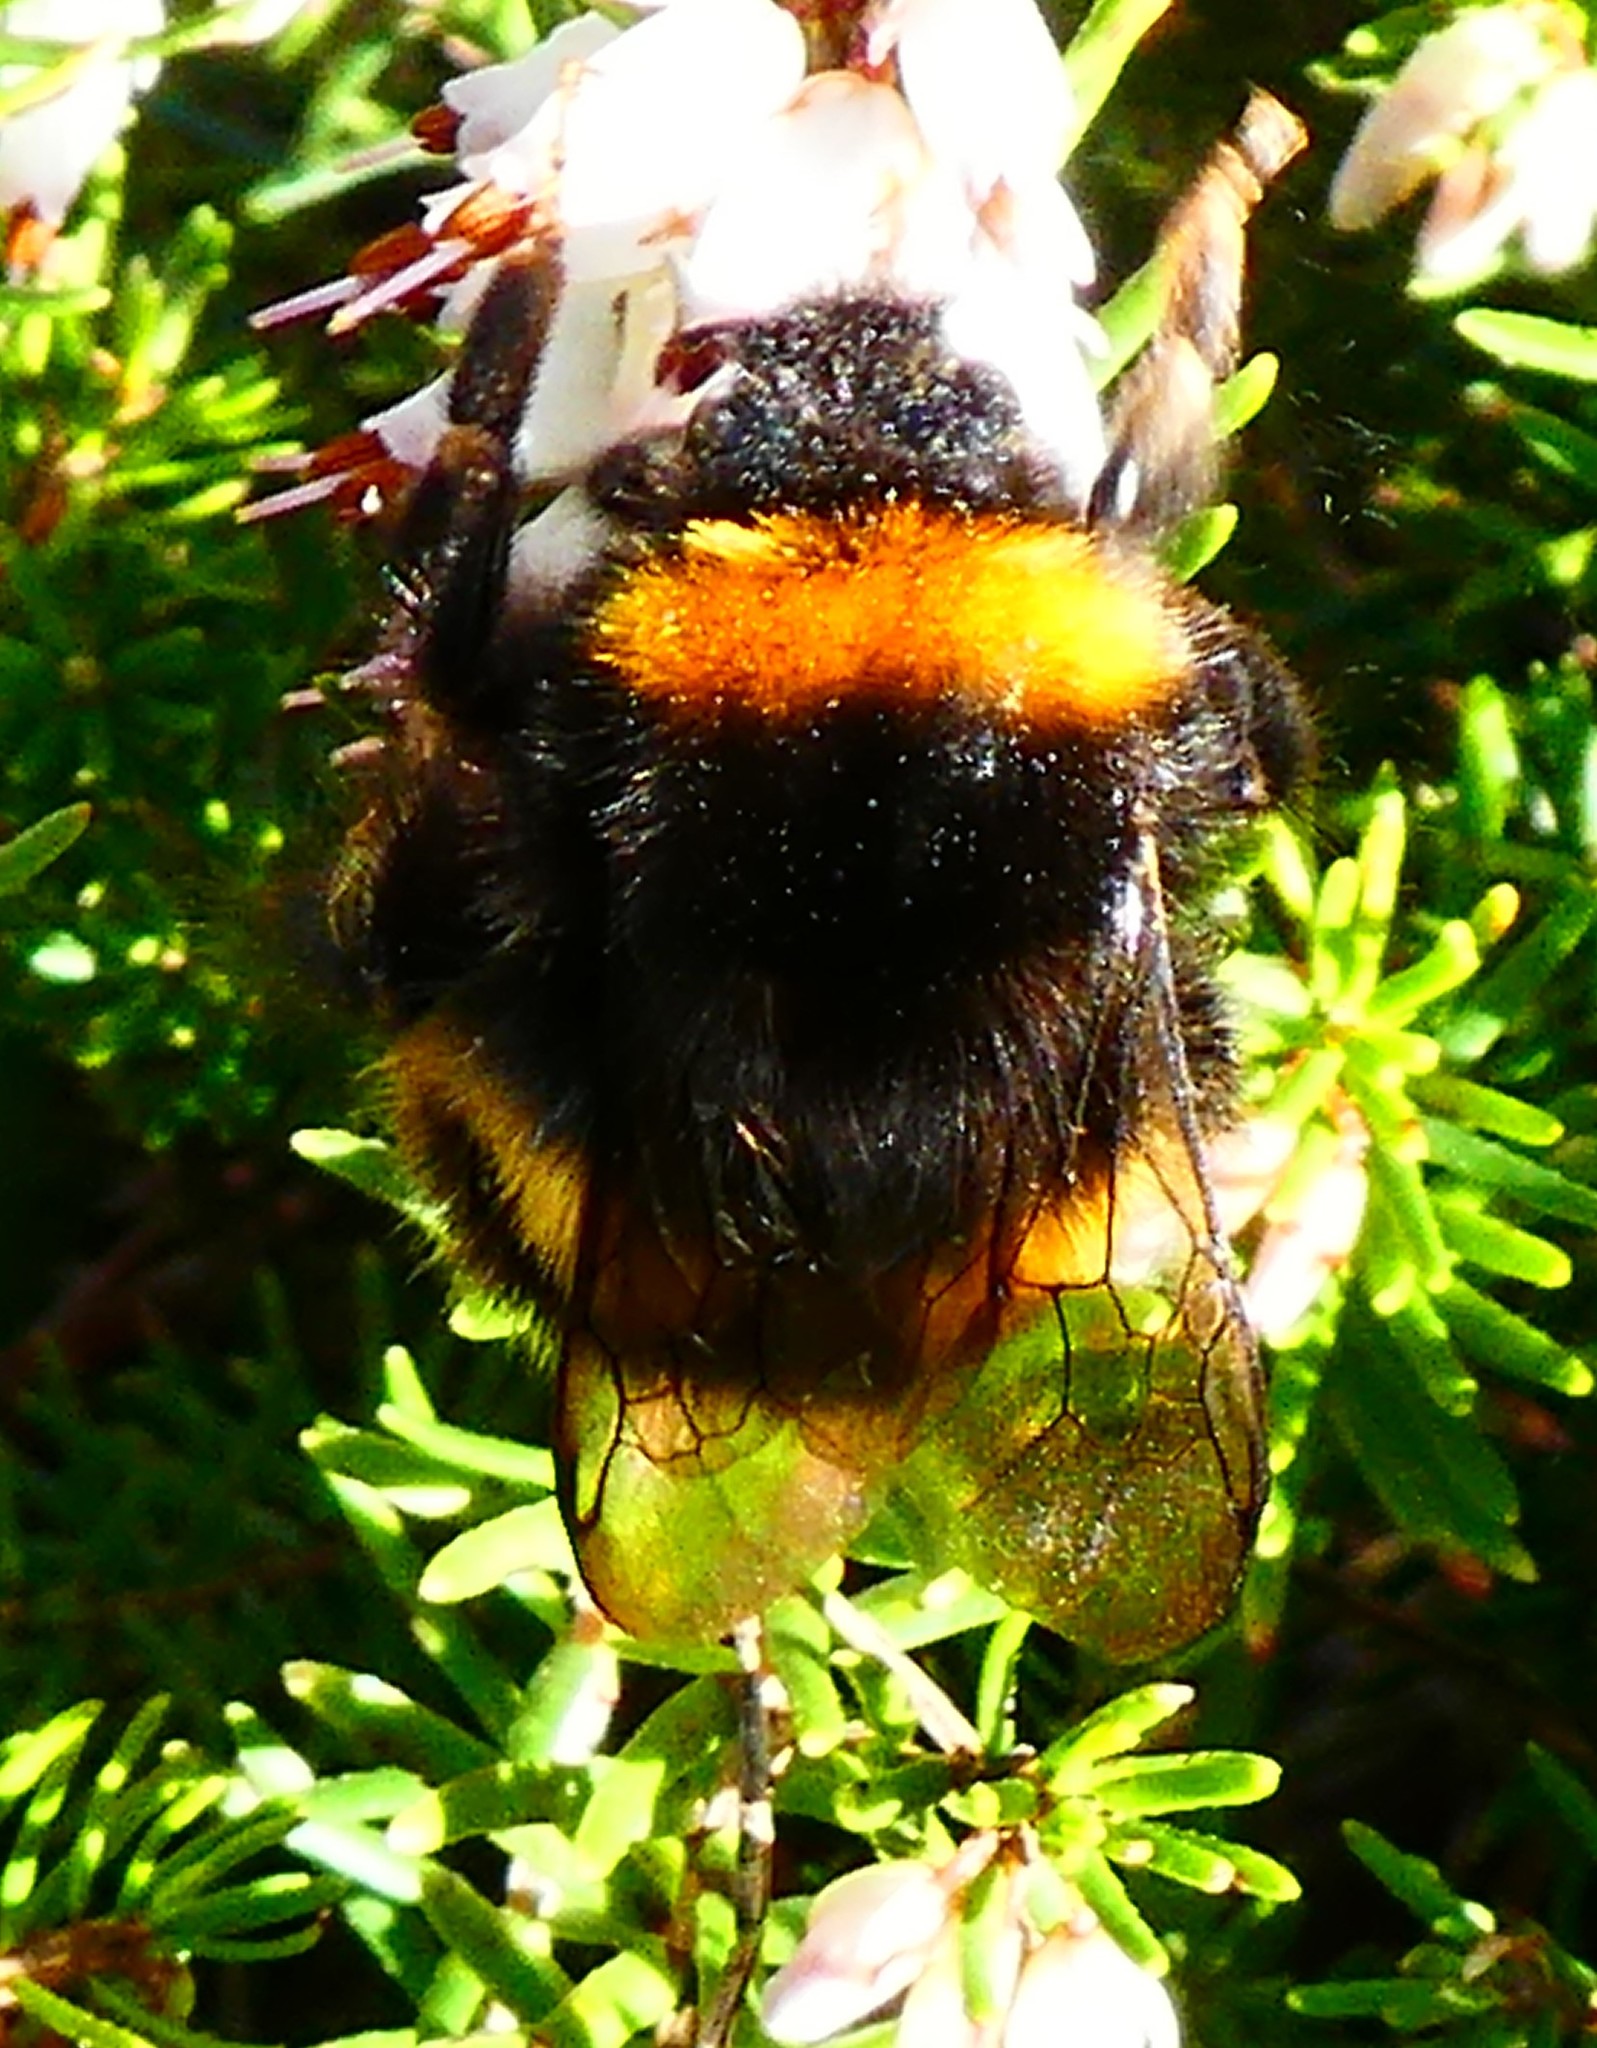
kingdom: Animalia
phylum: Arthropoda
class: Insecta
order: Hymenoptera
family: Apidae
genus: Bombus
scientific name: Bombus terrestris
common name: Buff-tailed bumblebee
